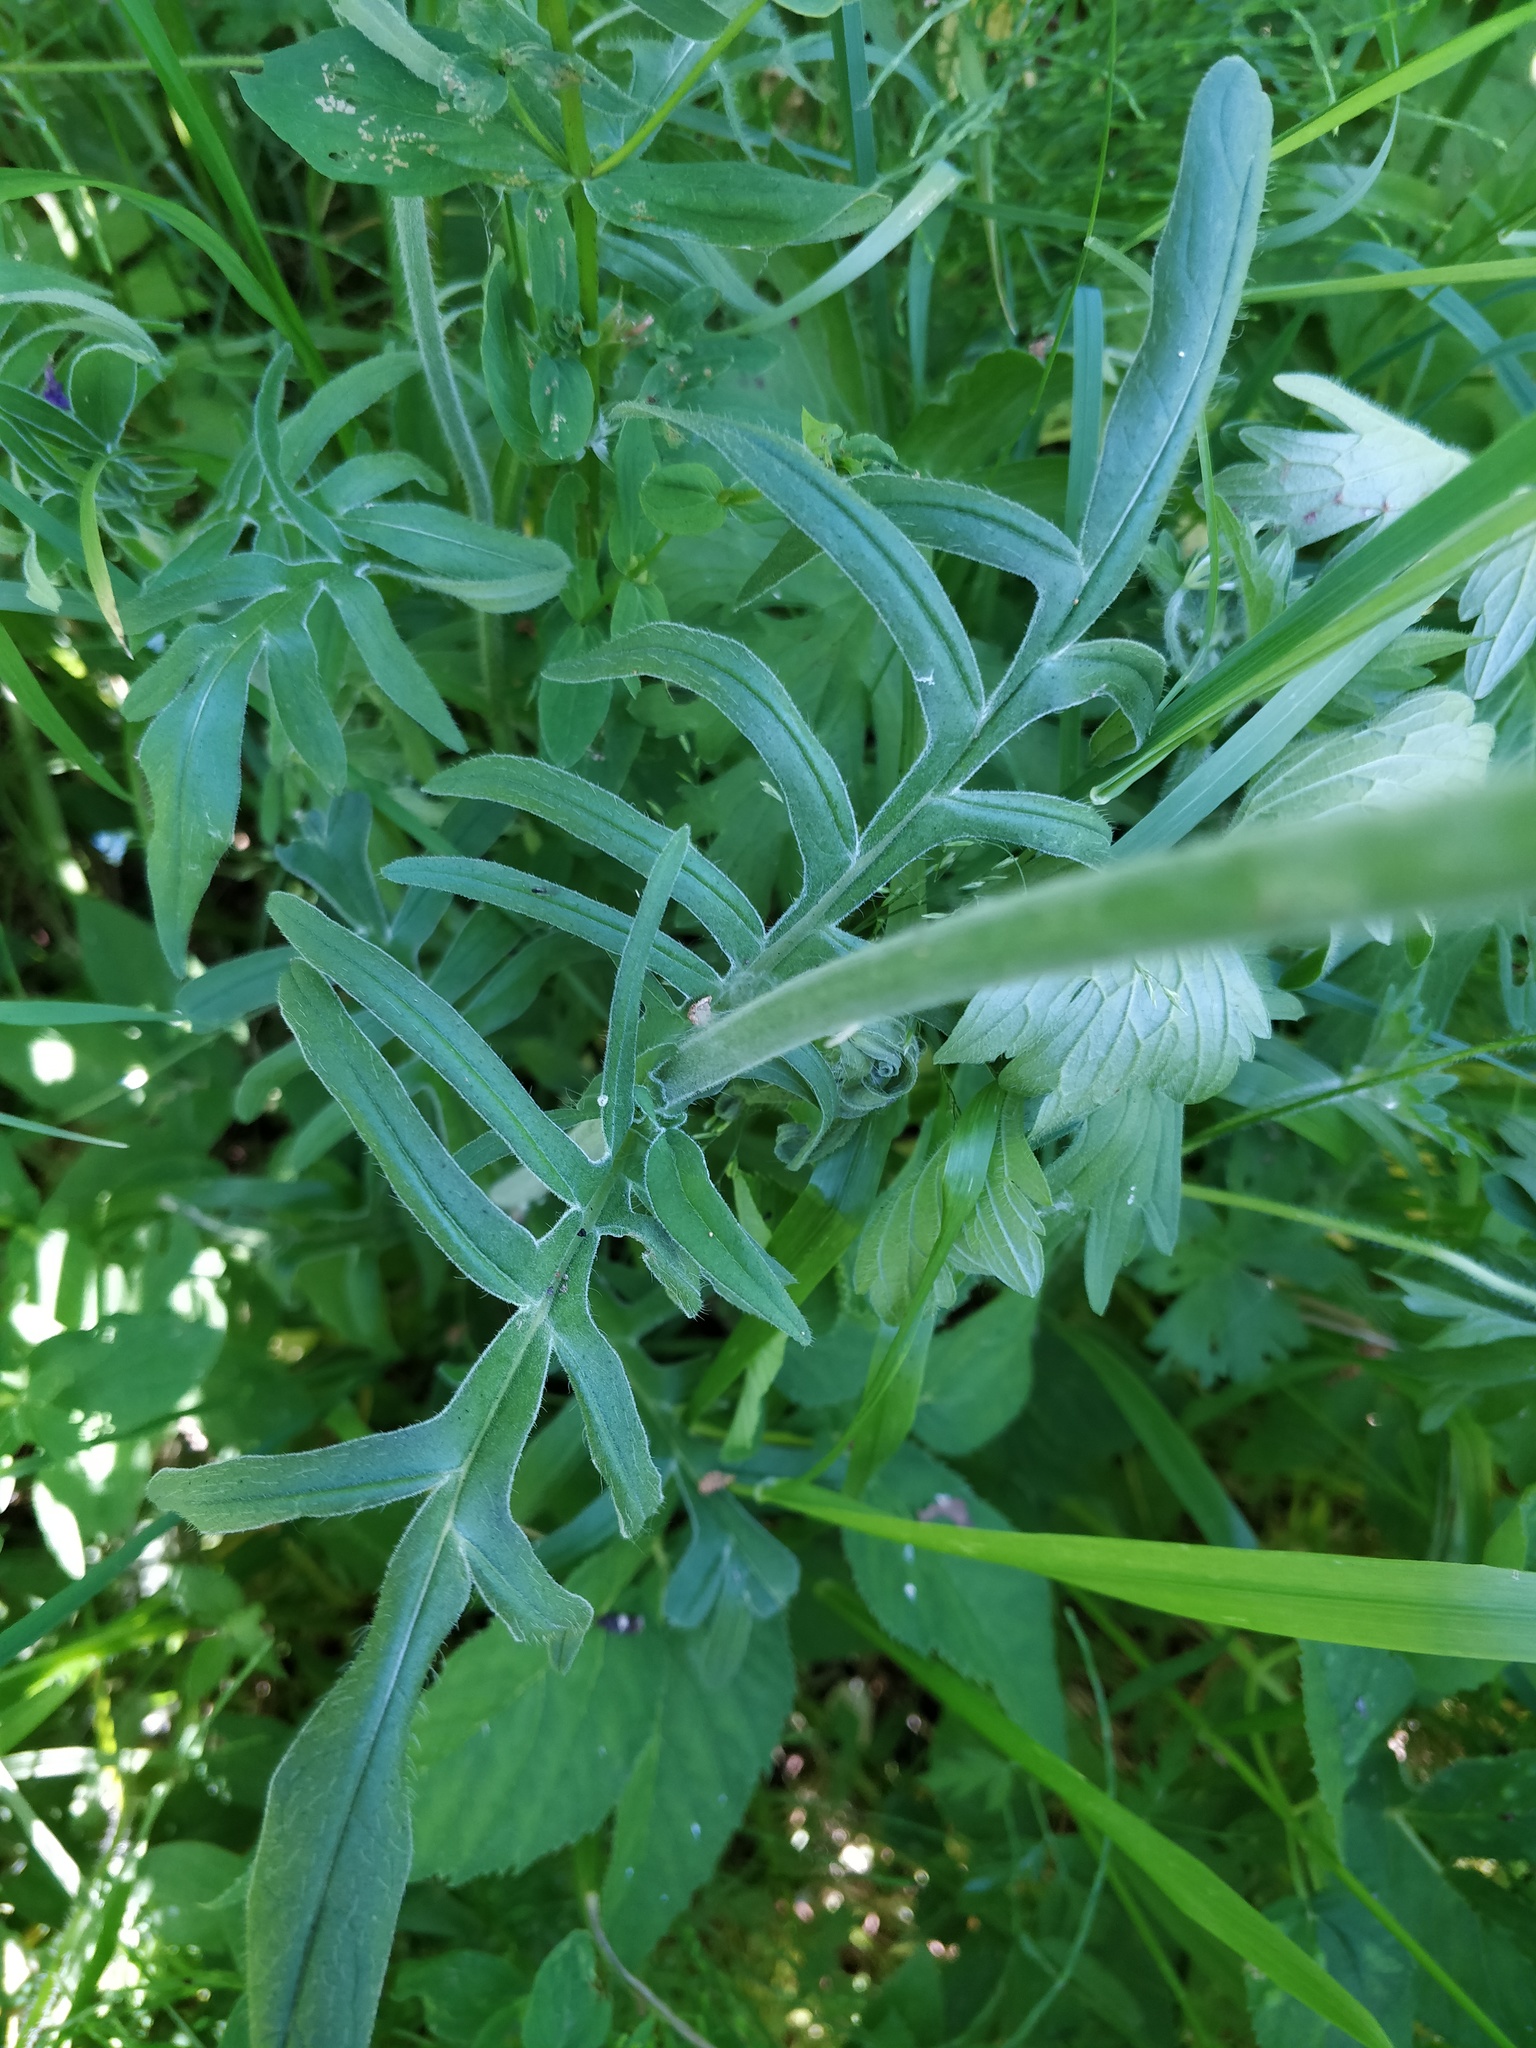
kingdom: Plantae
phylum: Tracheophyta
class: Magnoliopsida
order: Dipsacales
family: Caprifoliaceae
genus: Knautia
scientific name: Knautia arvensis
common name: Field scabiosa
